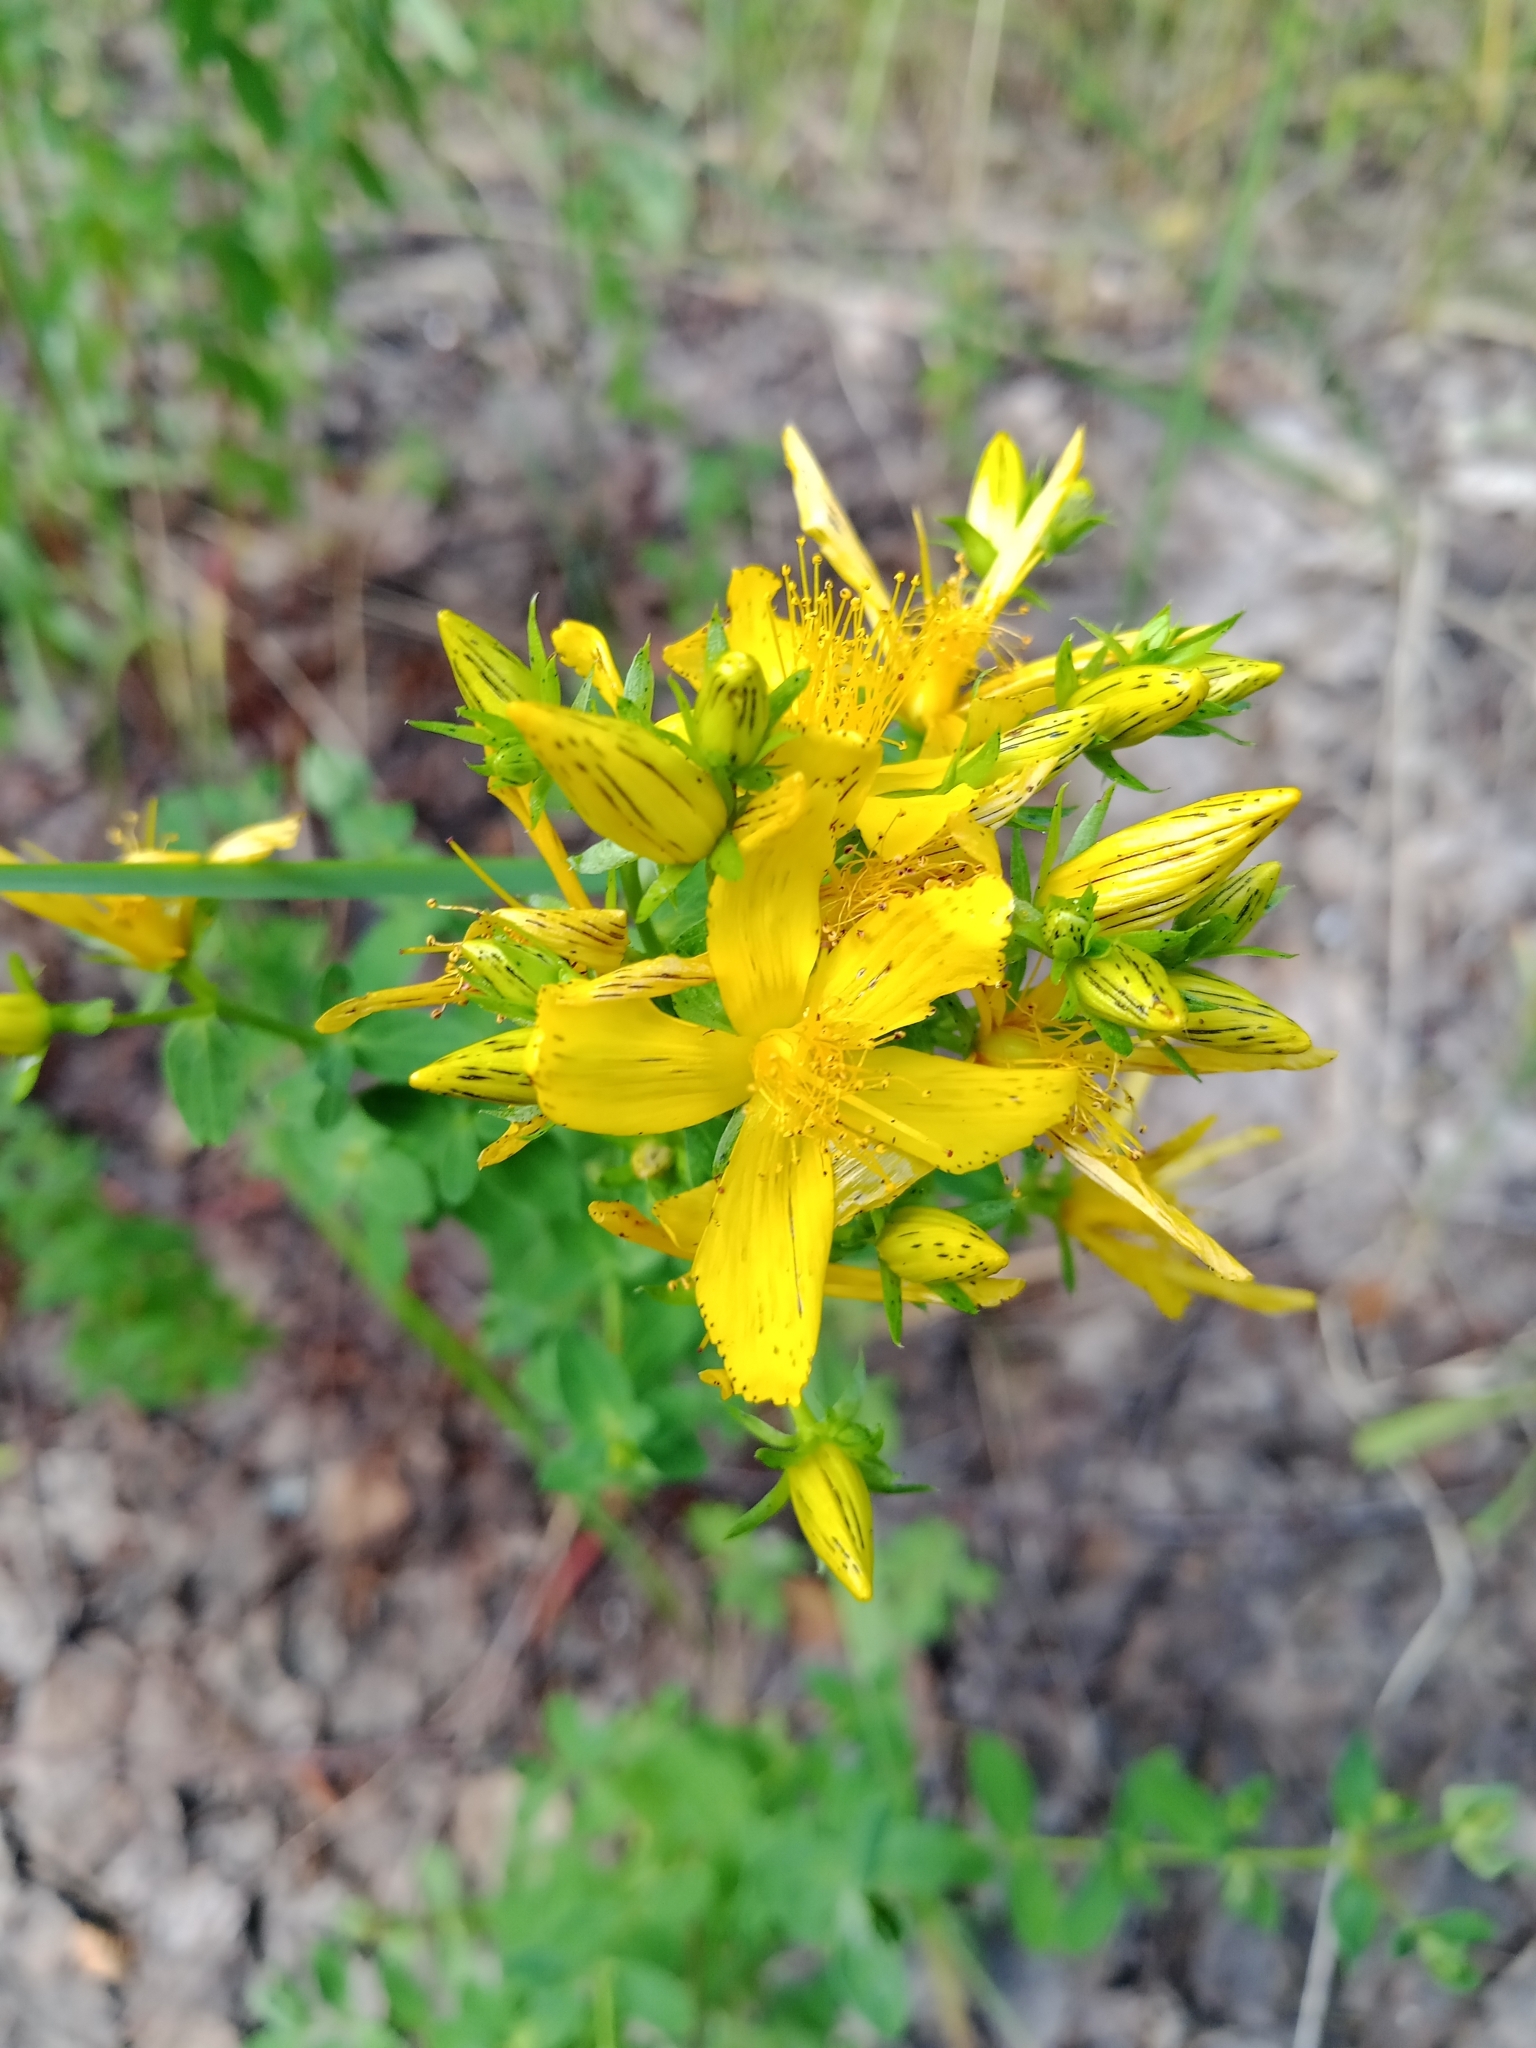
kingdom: Plantae
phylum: Tracheophyta
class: Magnoliopsida
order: Malpighiales
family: Hypericaceae
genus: Hypericum
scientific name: Hypericum perforatum
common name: Common st. johnswort
